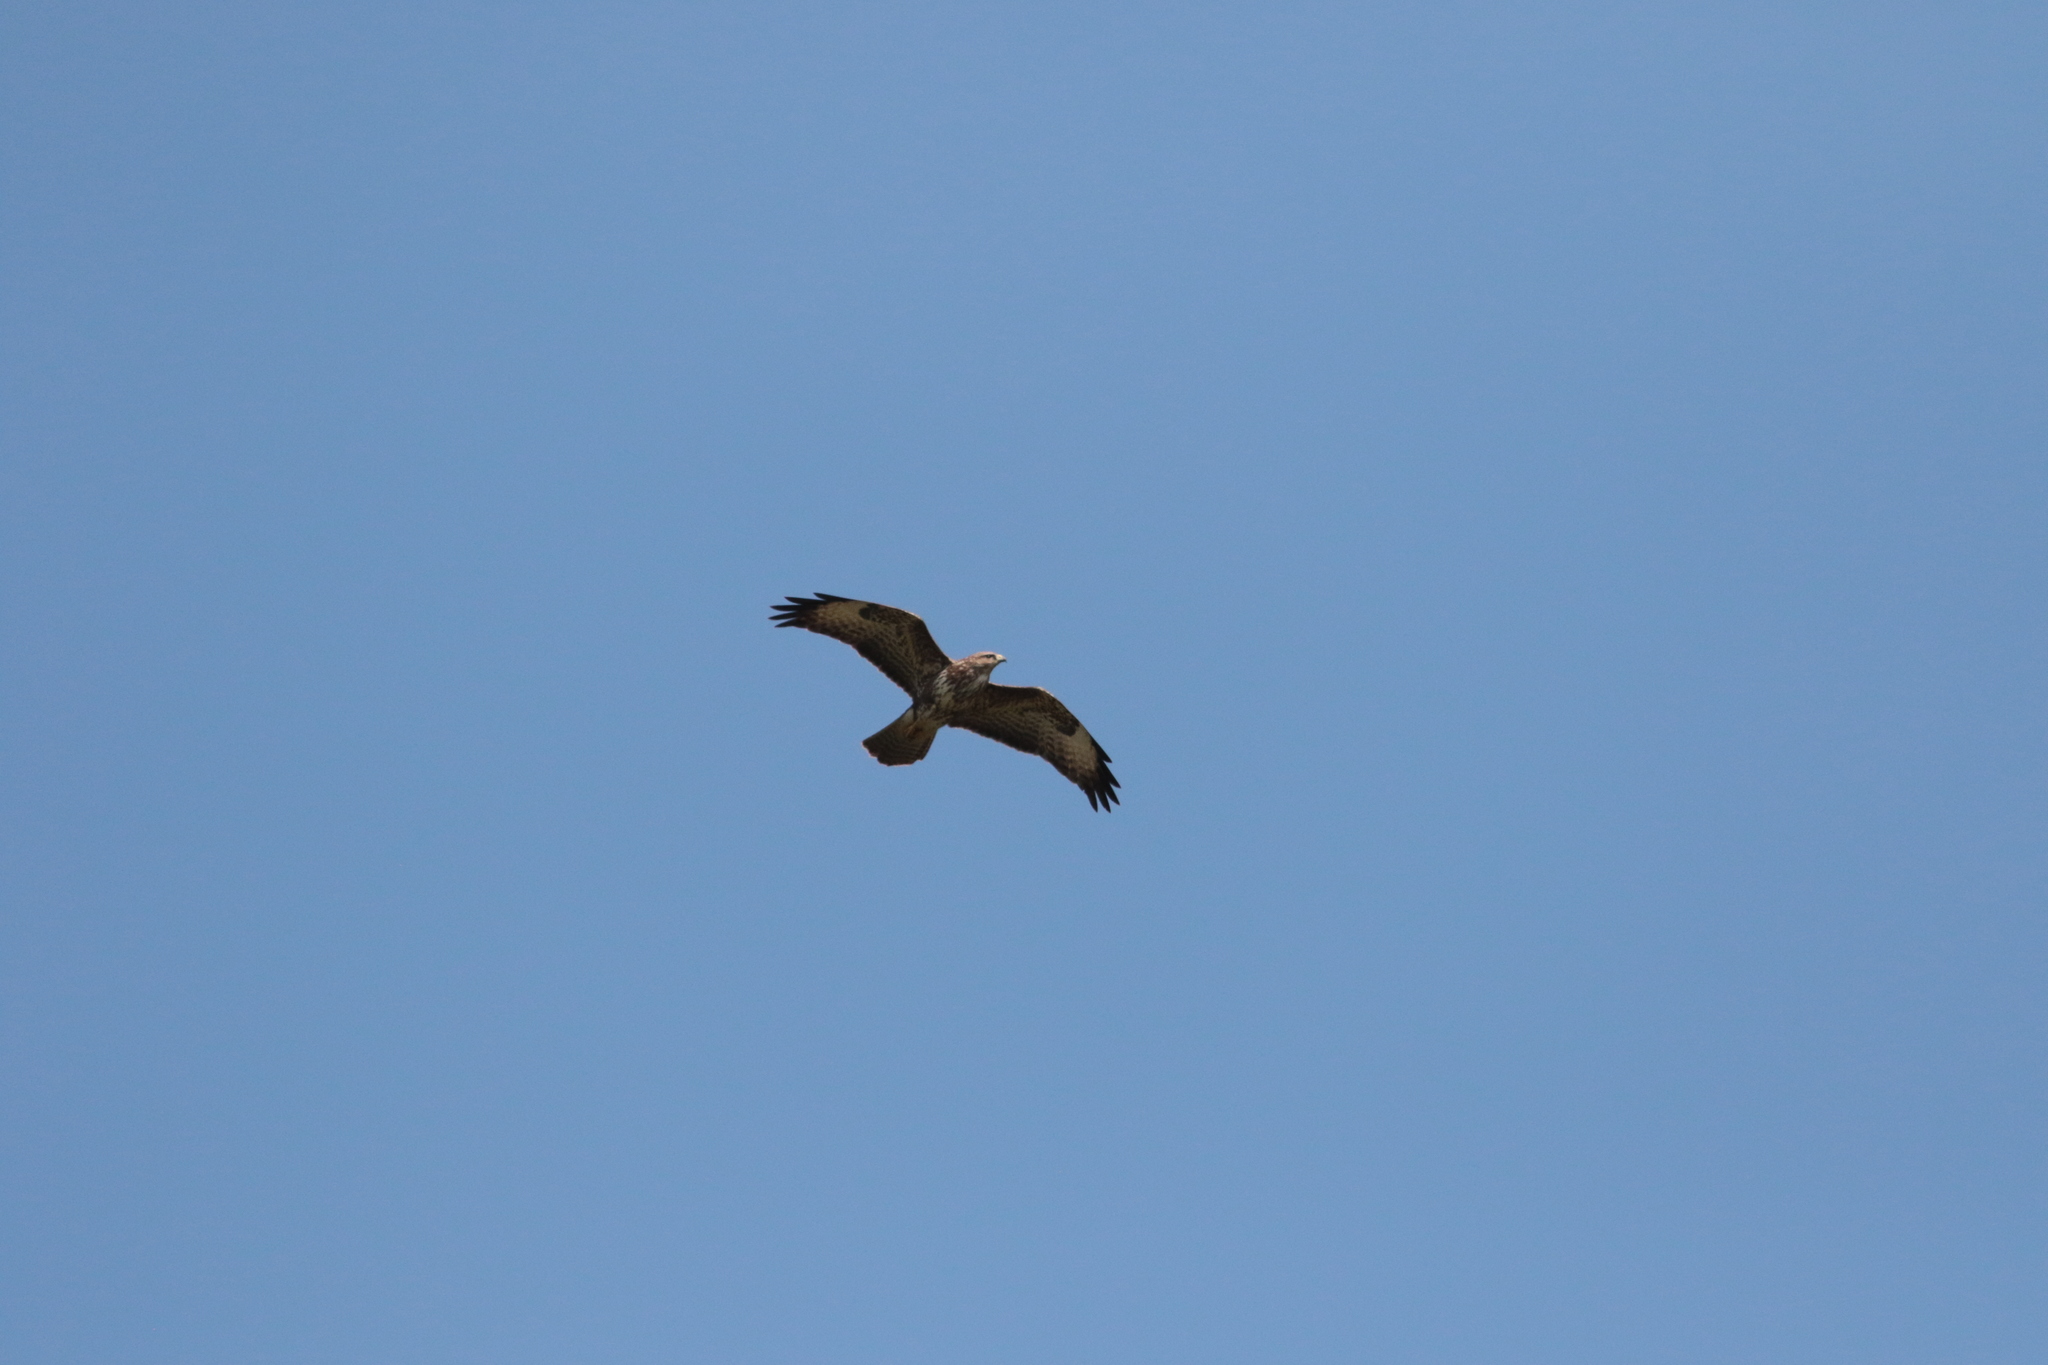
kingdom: Animalia
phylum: Chordata
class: Aves
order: Accipitriformes
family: Accipitridae
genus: Buteo
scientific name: Buteo buteo
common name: Common buzzard
